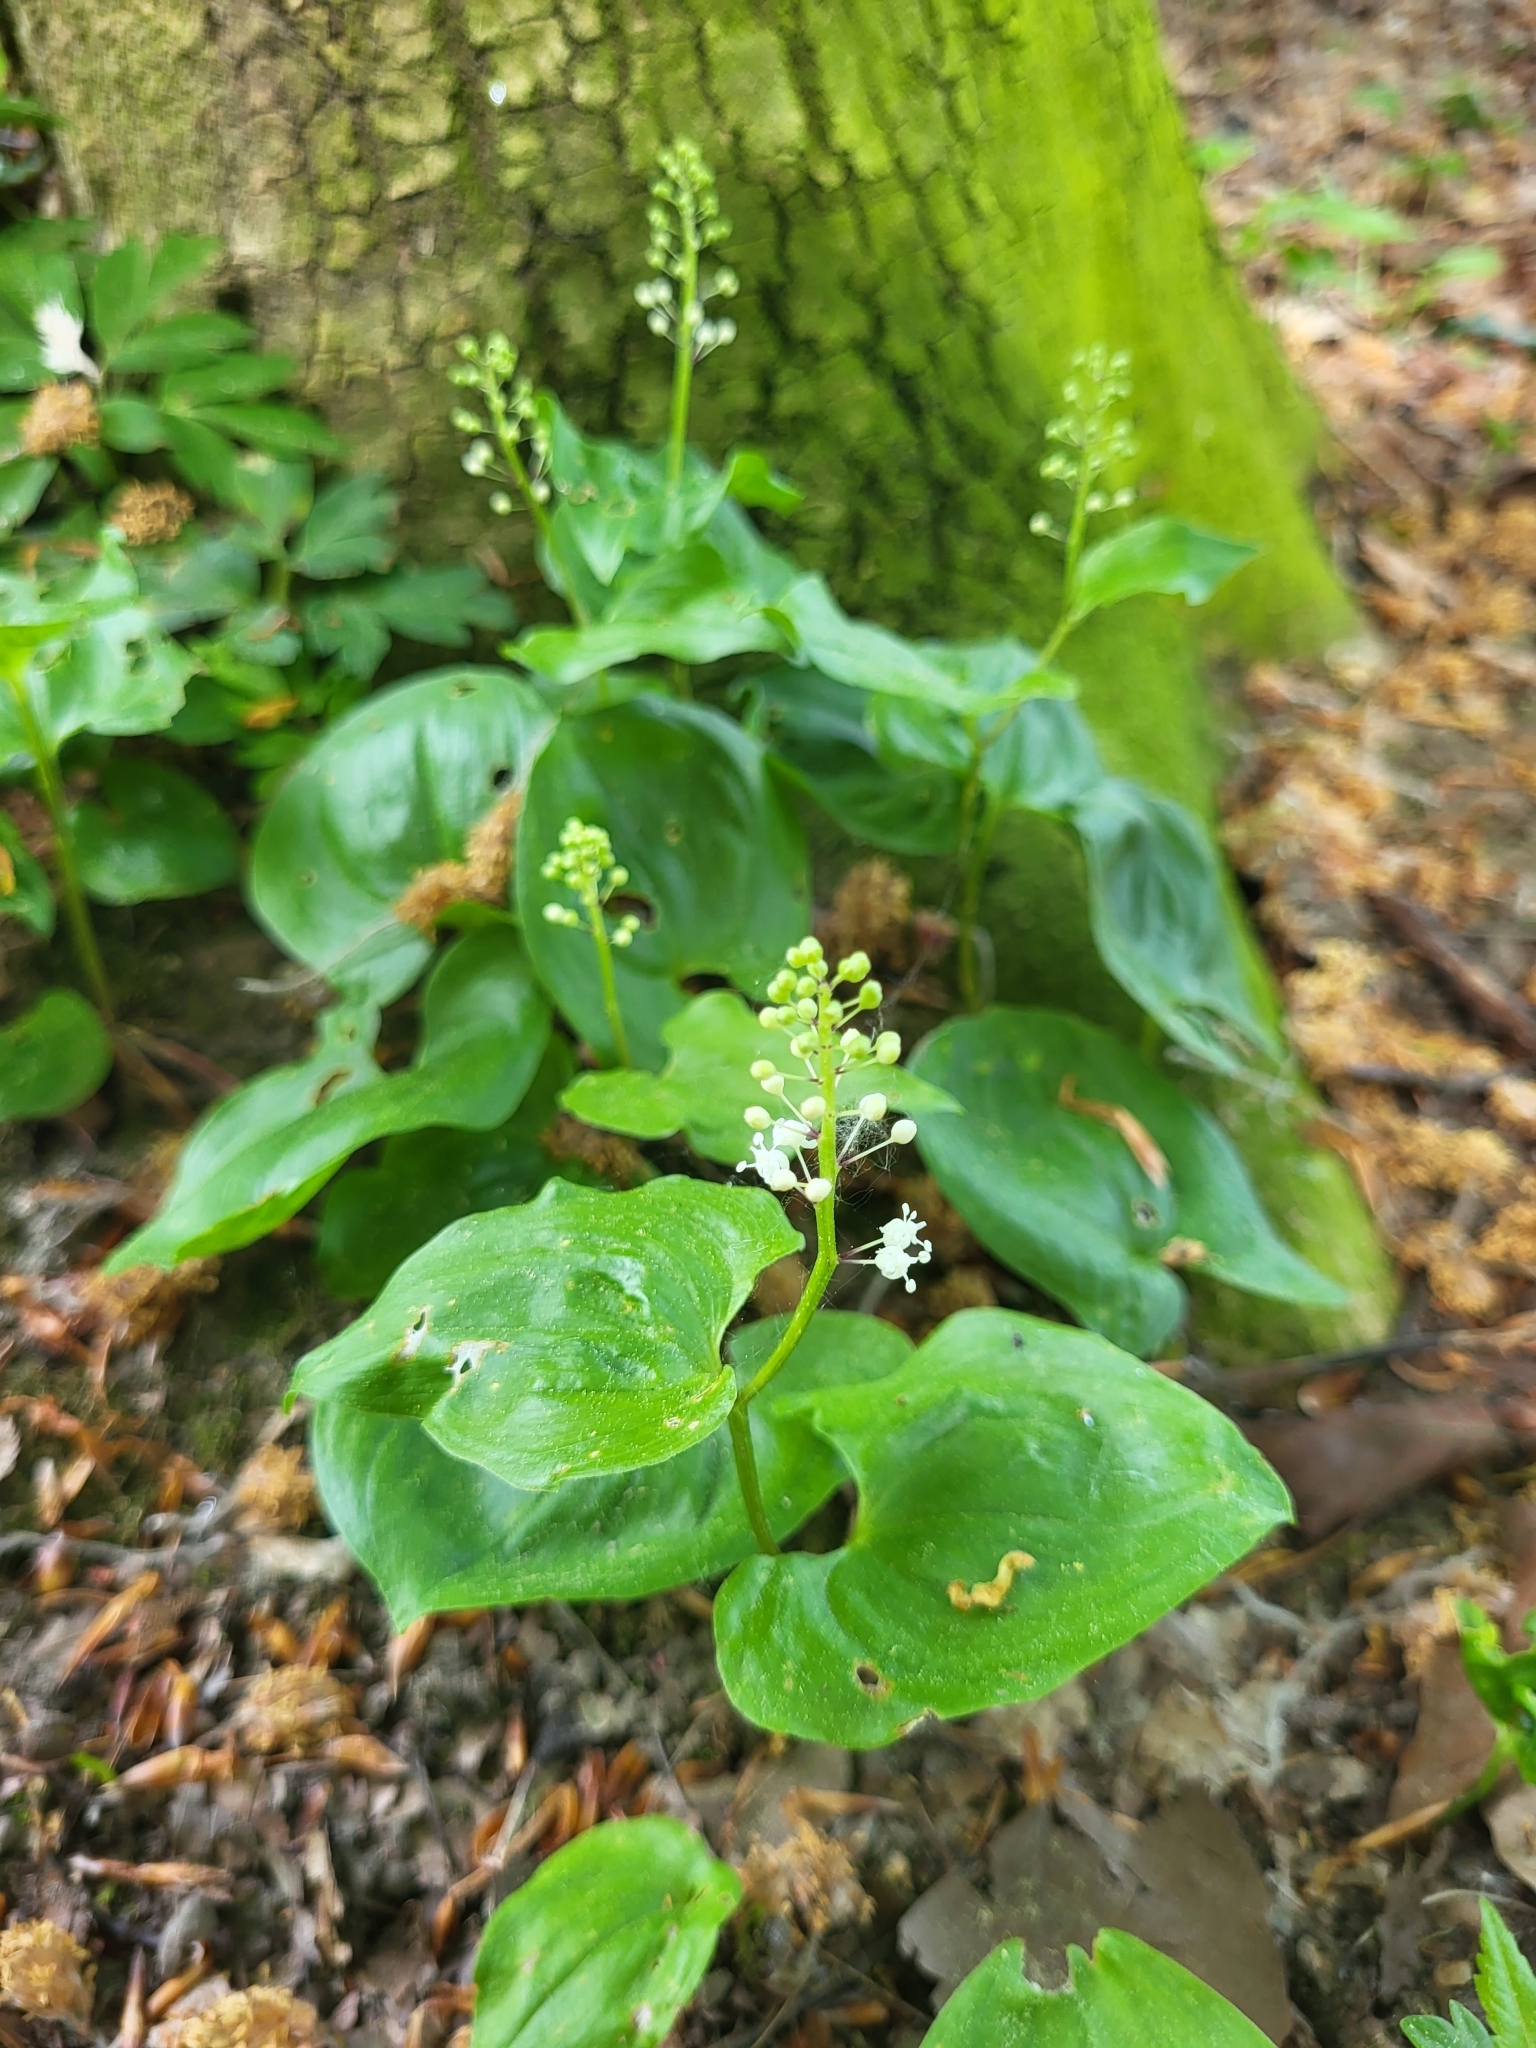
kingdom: Plantae
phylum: Tracheophyta
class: Liliopsida
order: Asparagales
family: Asparagaceae
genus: Maianthemum
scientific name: Maianthemum bifolium
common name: May lily
